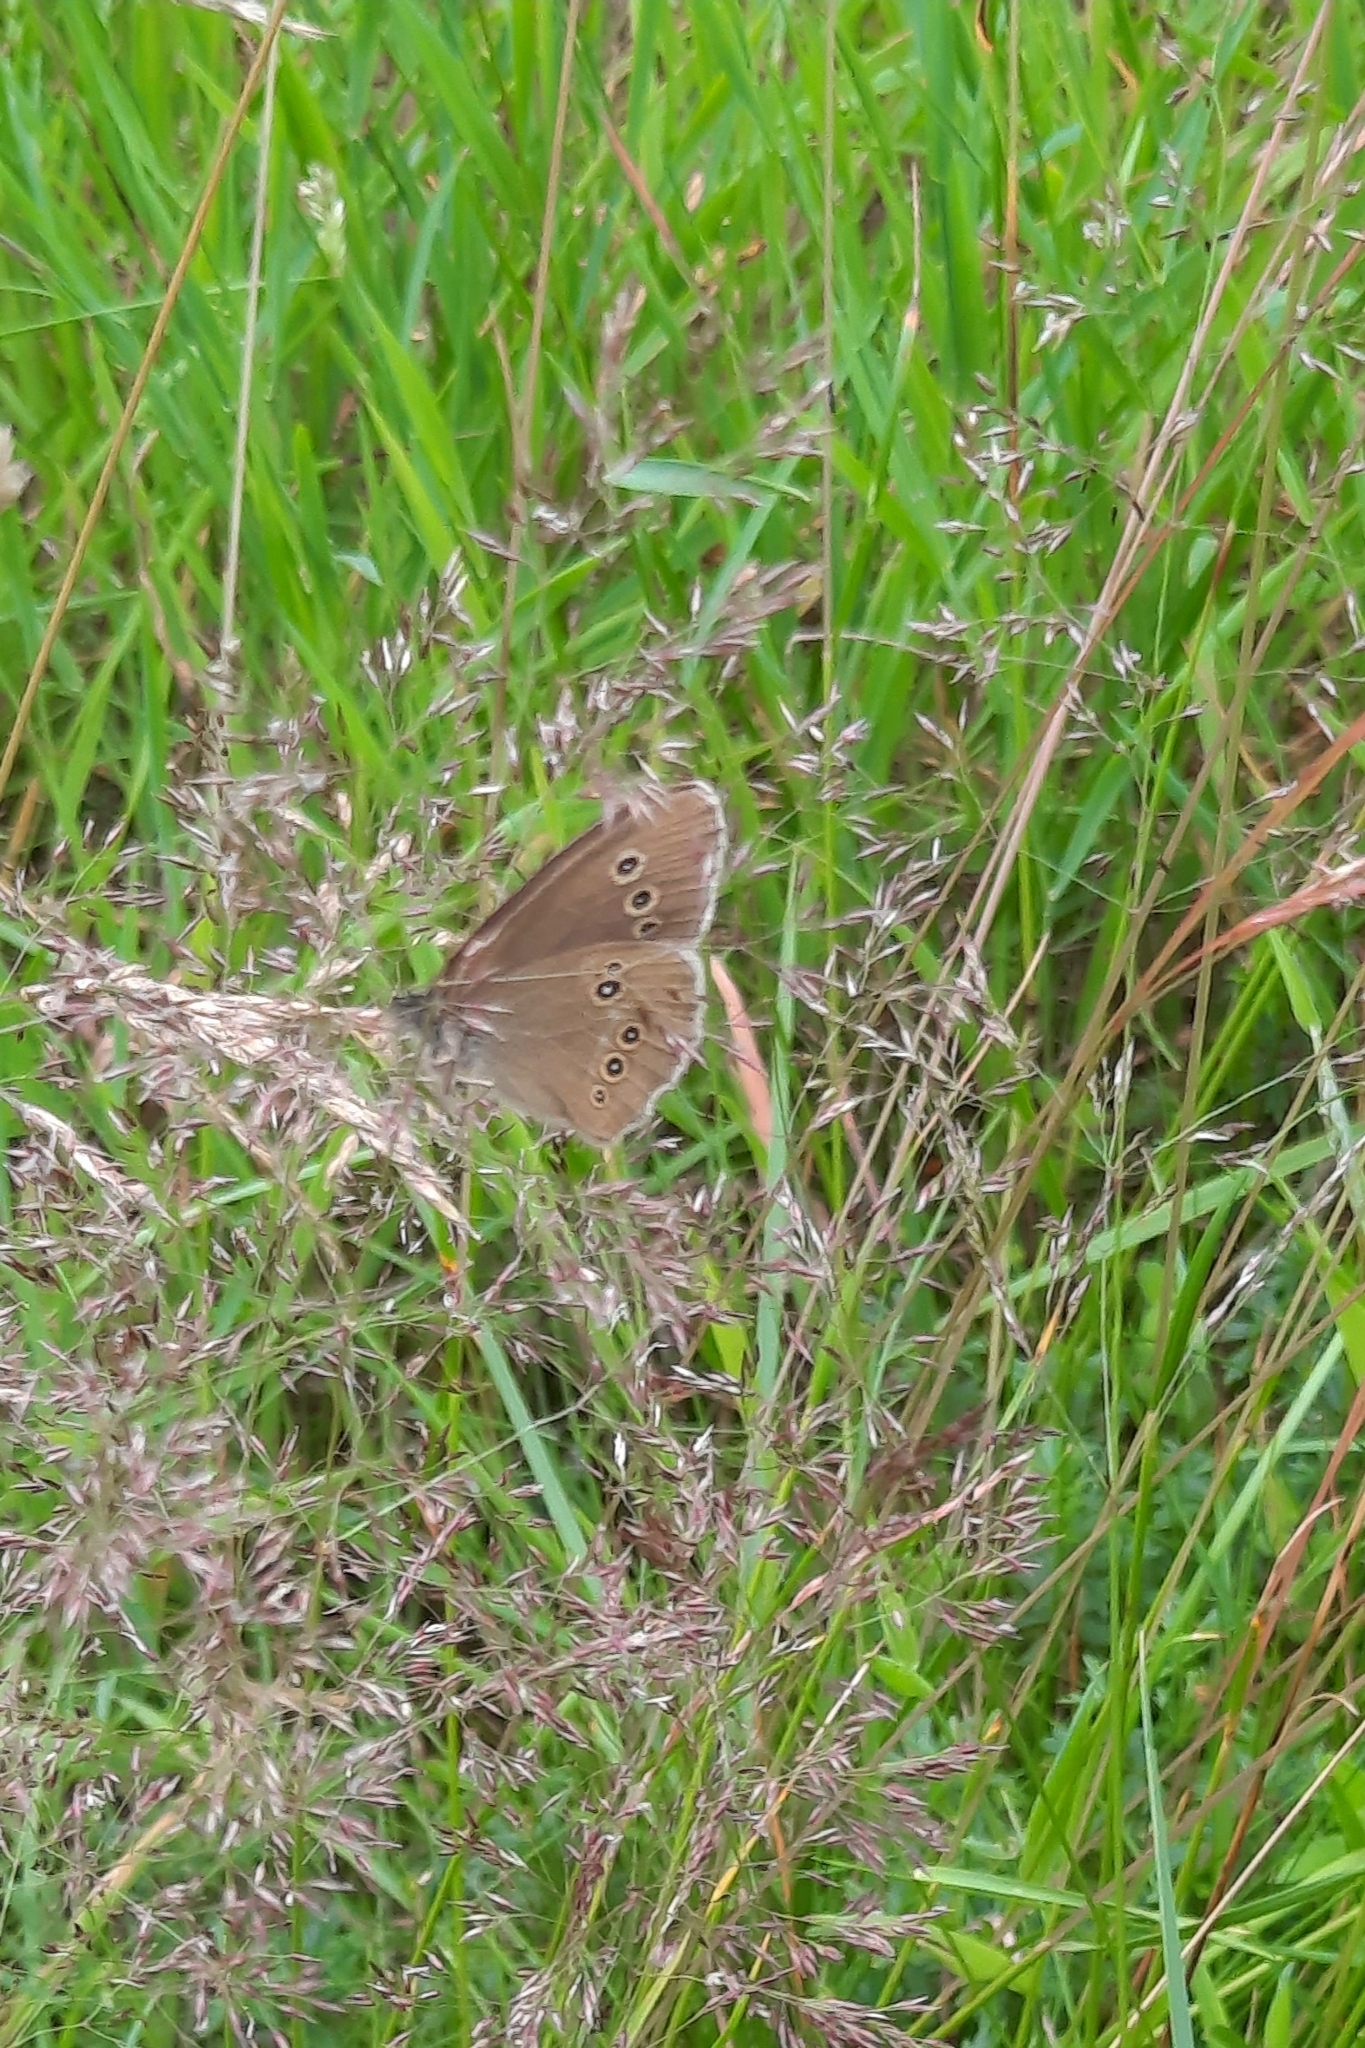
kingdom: Animalia
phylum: Arthropoda
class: Insecta
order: Lepidoptera
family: Nymphalidae
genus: Aphantopus
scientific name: Aphantopus hyperantus
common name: Ringlet
